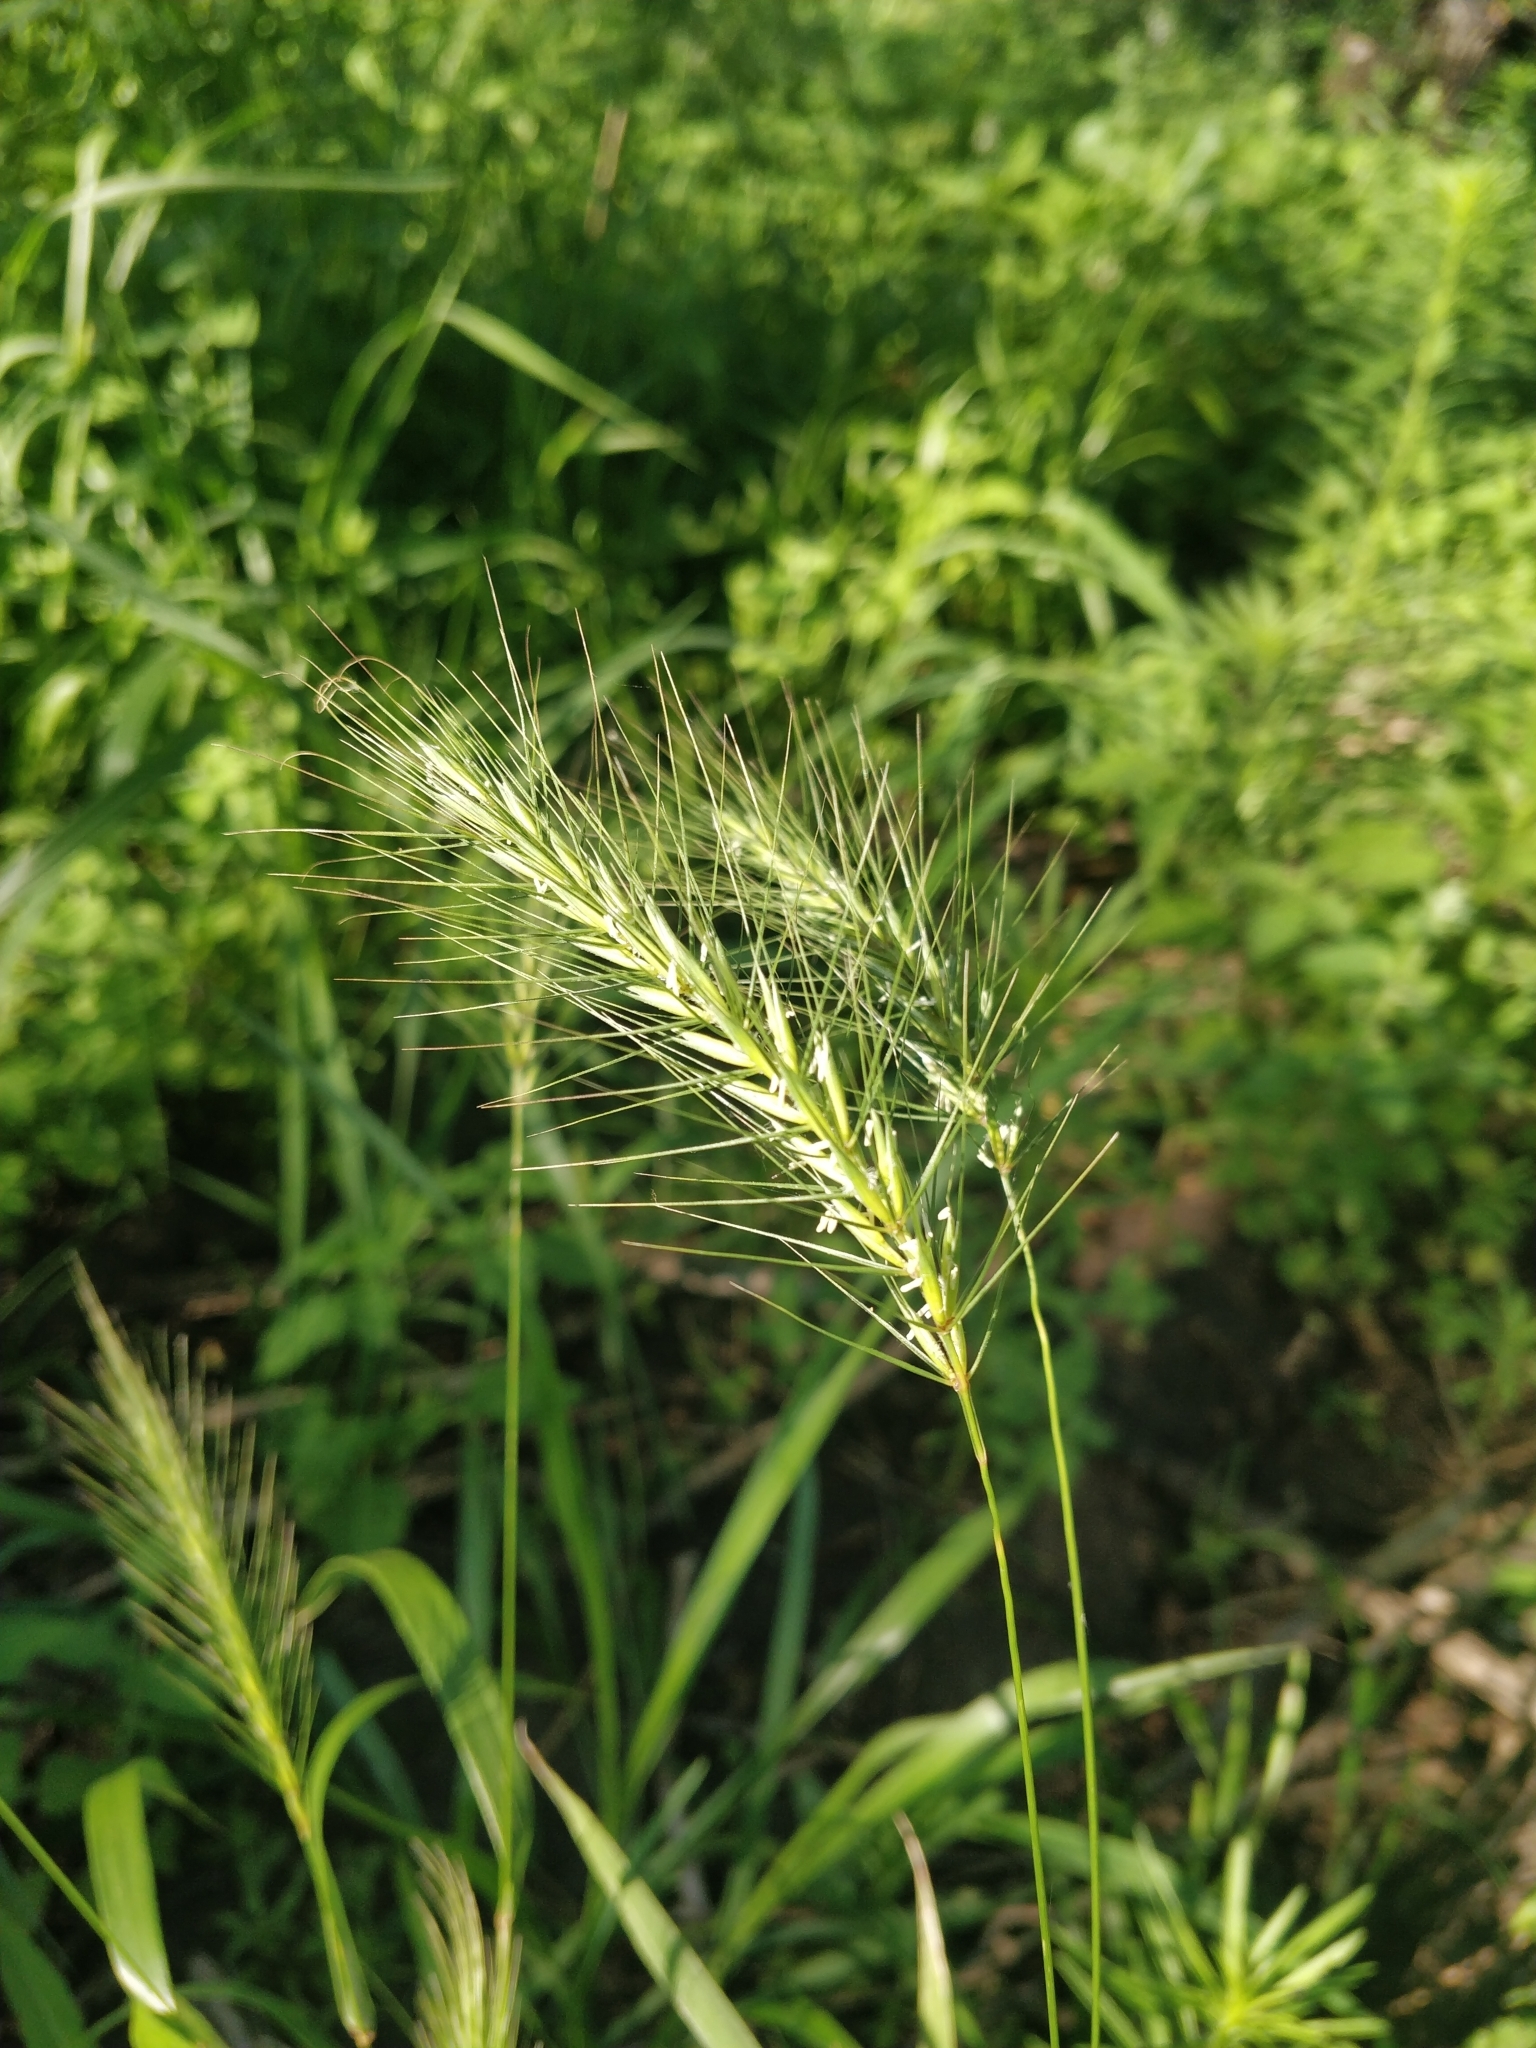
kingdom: Plantae
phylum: Tracheophyta
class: Liliopsida
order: Poales
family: Poaceae
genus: Elymus
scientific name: Elymus villosus
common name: Downy wild rye
